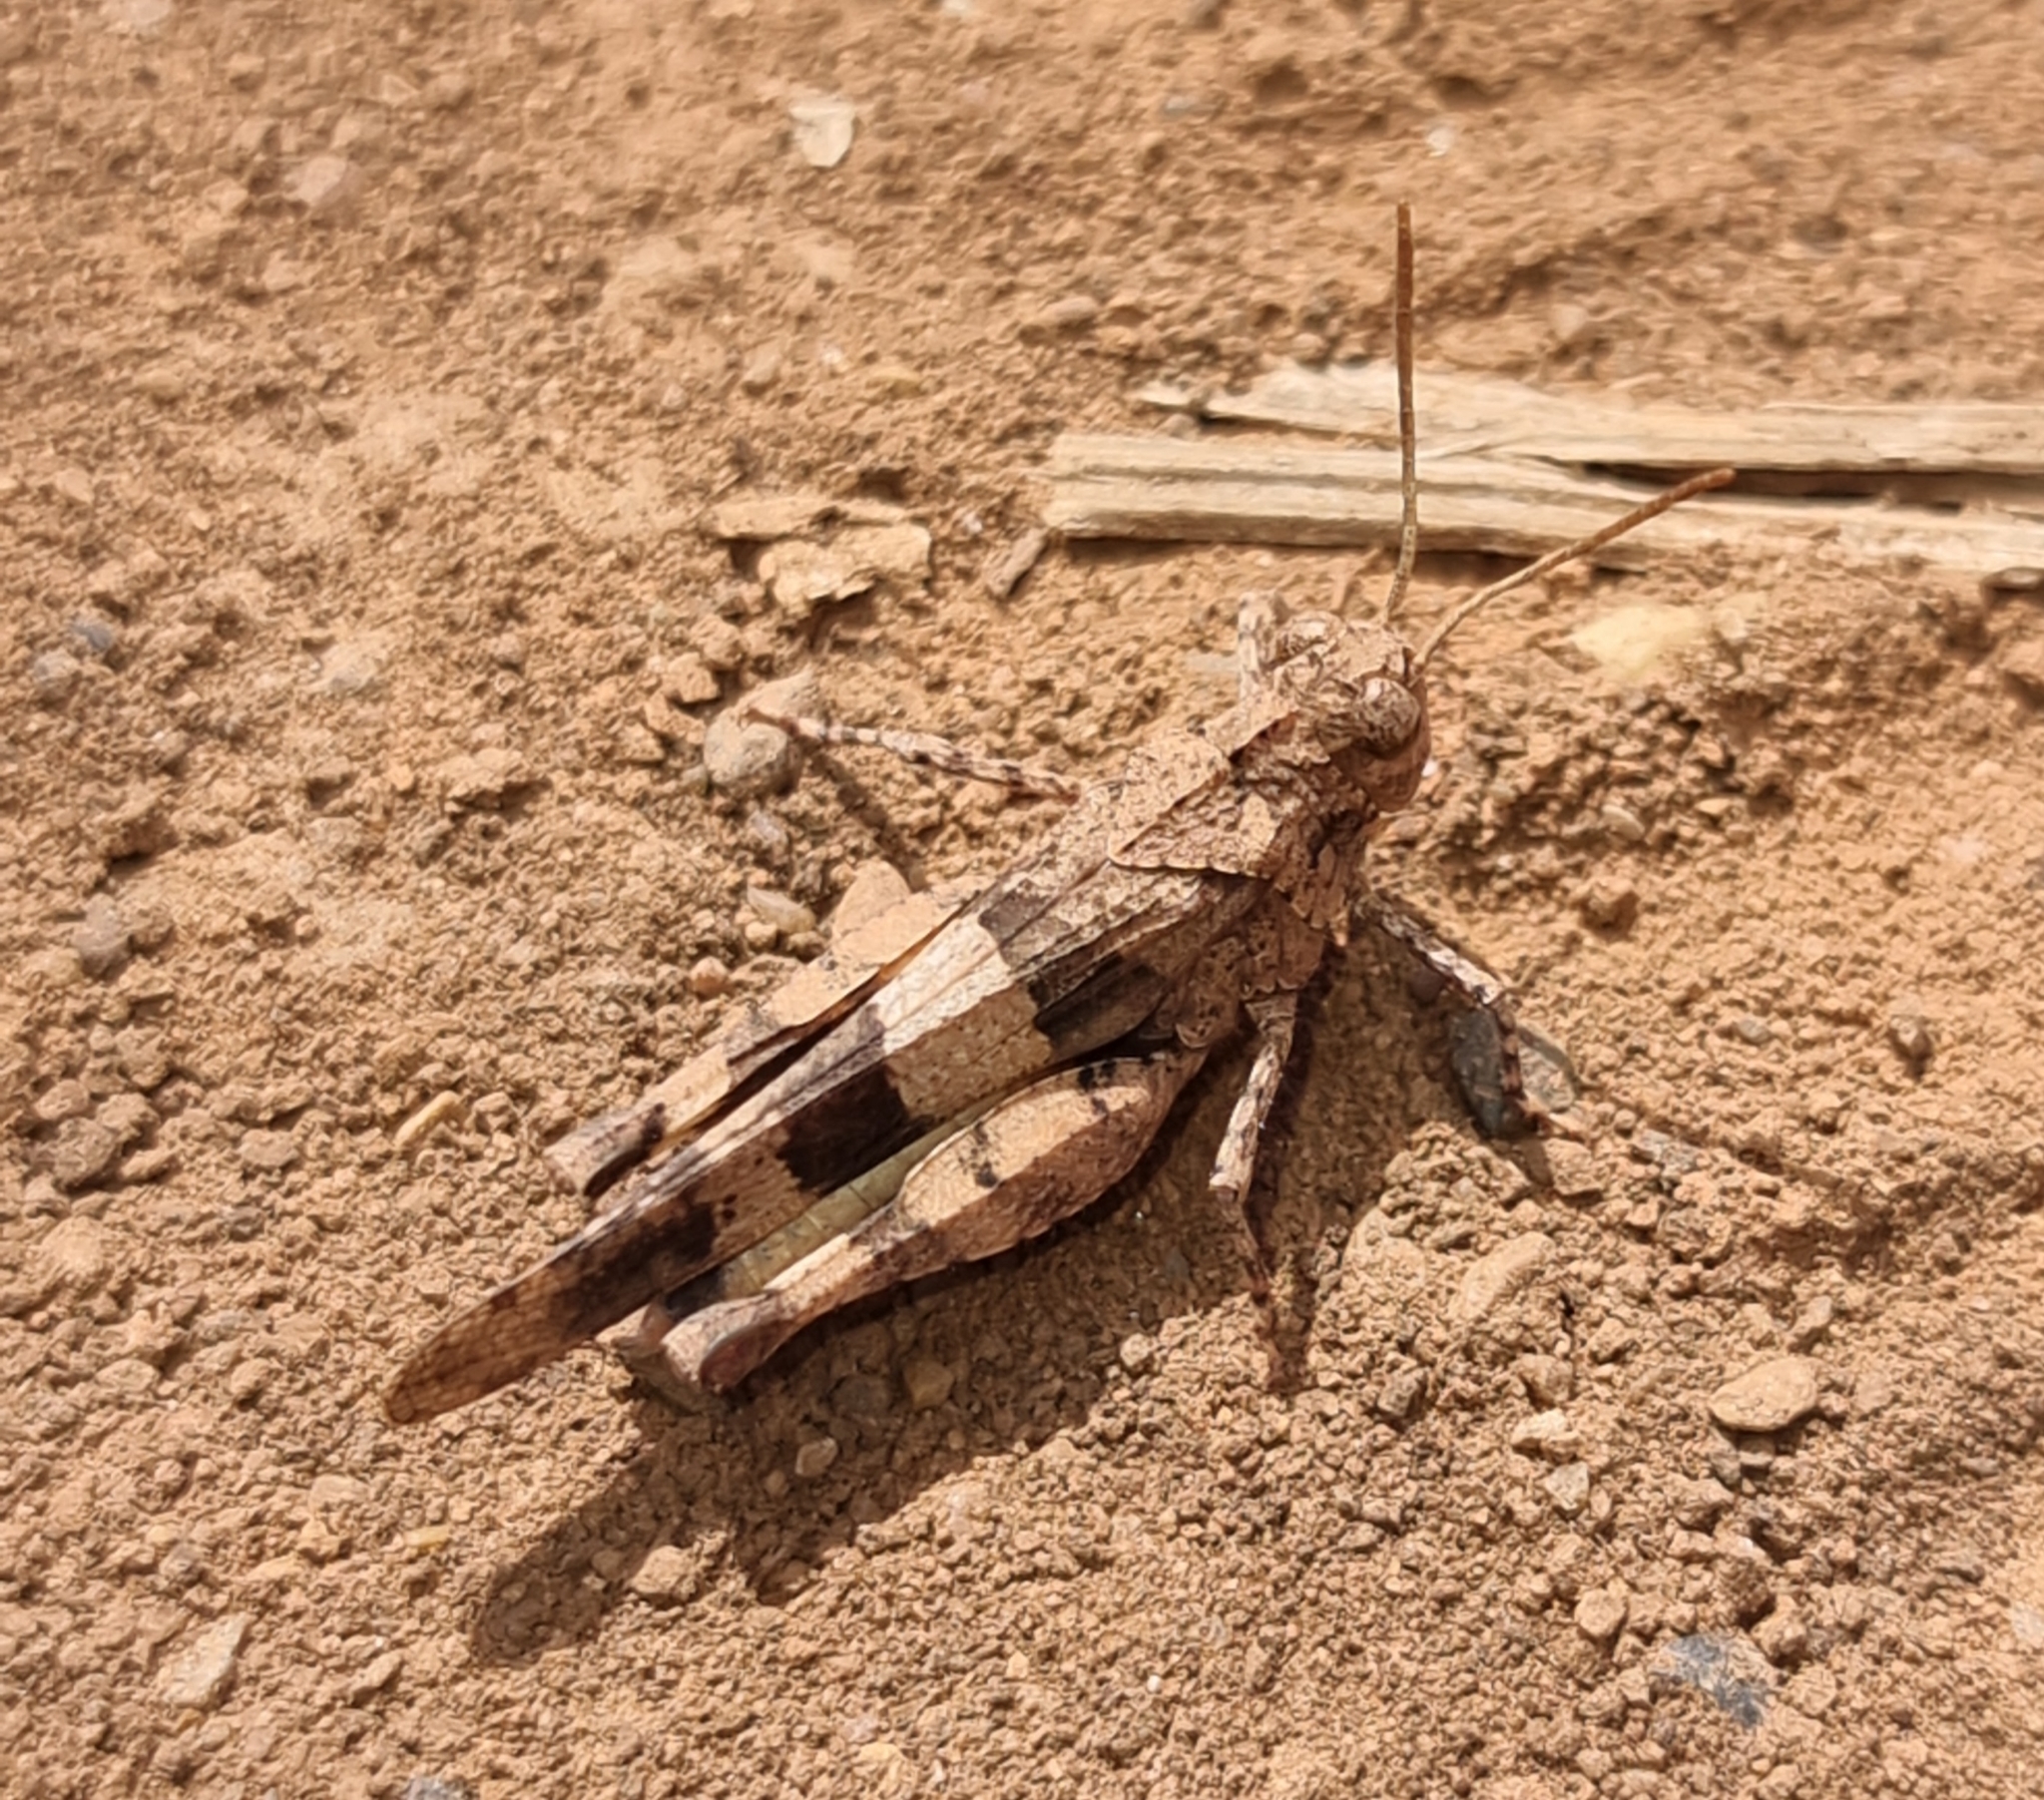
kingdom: Animalia
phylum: Arthropoda
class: Insecta
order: Orthoptera
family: Acrididae
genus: Oedipoda
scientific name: Oedipoda caerulescens
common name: Blue-winged grasshopper
